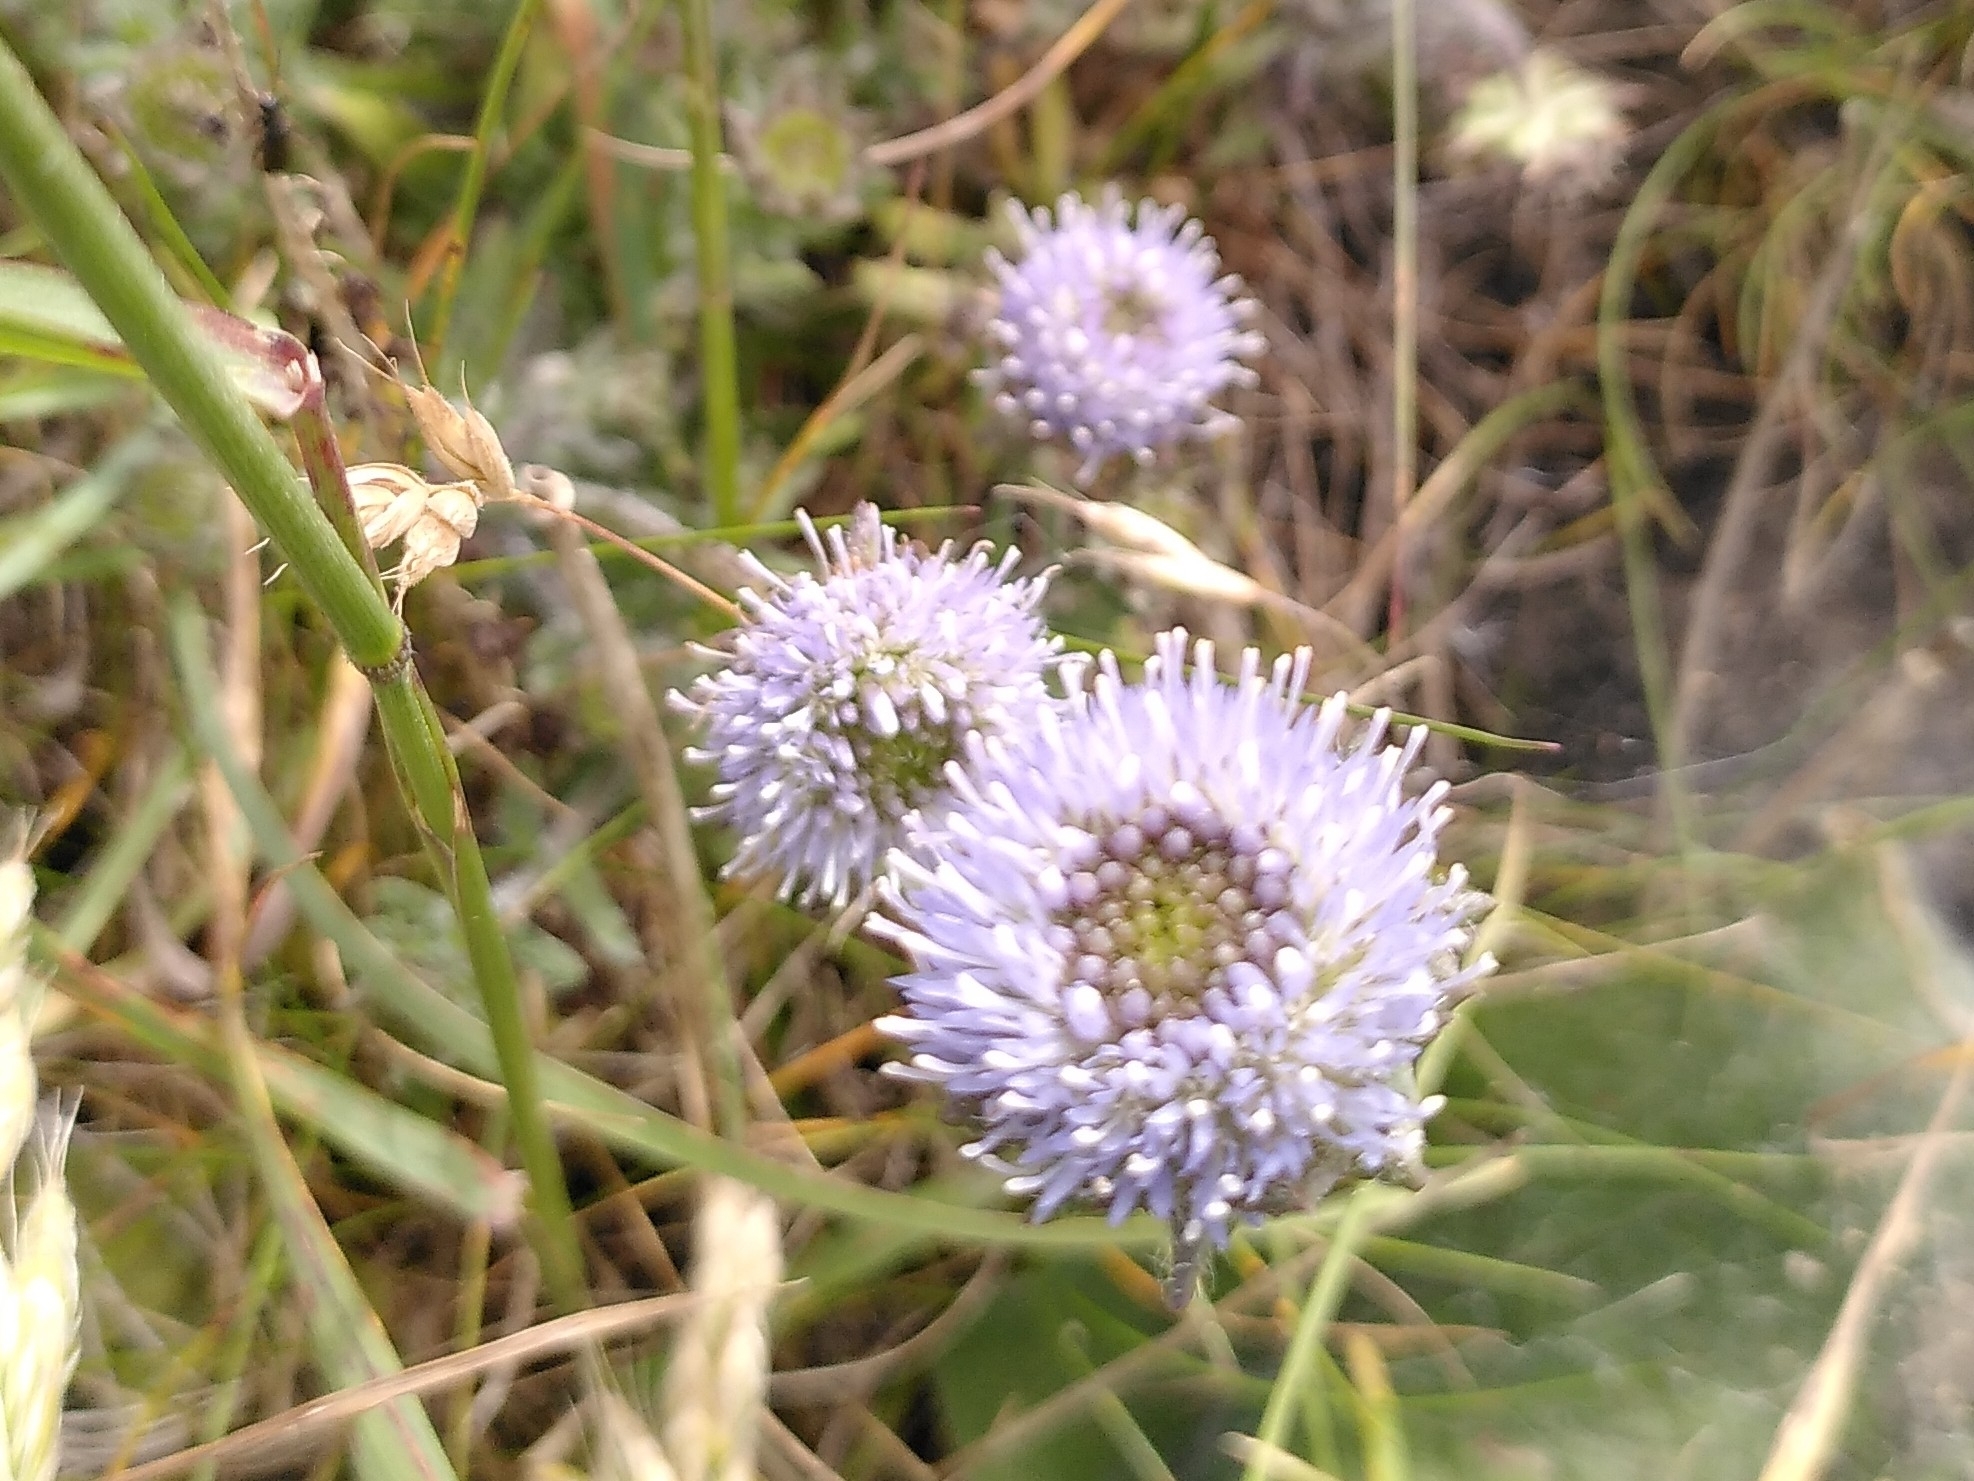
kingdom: Plantae
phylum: Tracheophyta
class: Magnoliopsida
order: Asterales
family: Campanulaceae
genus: Jasione
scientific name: Jasione montana
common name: Sheep's-bit
